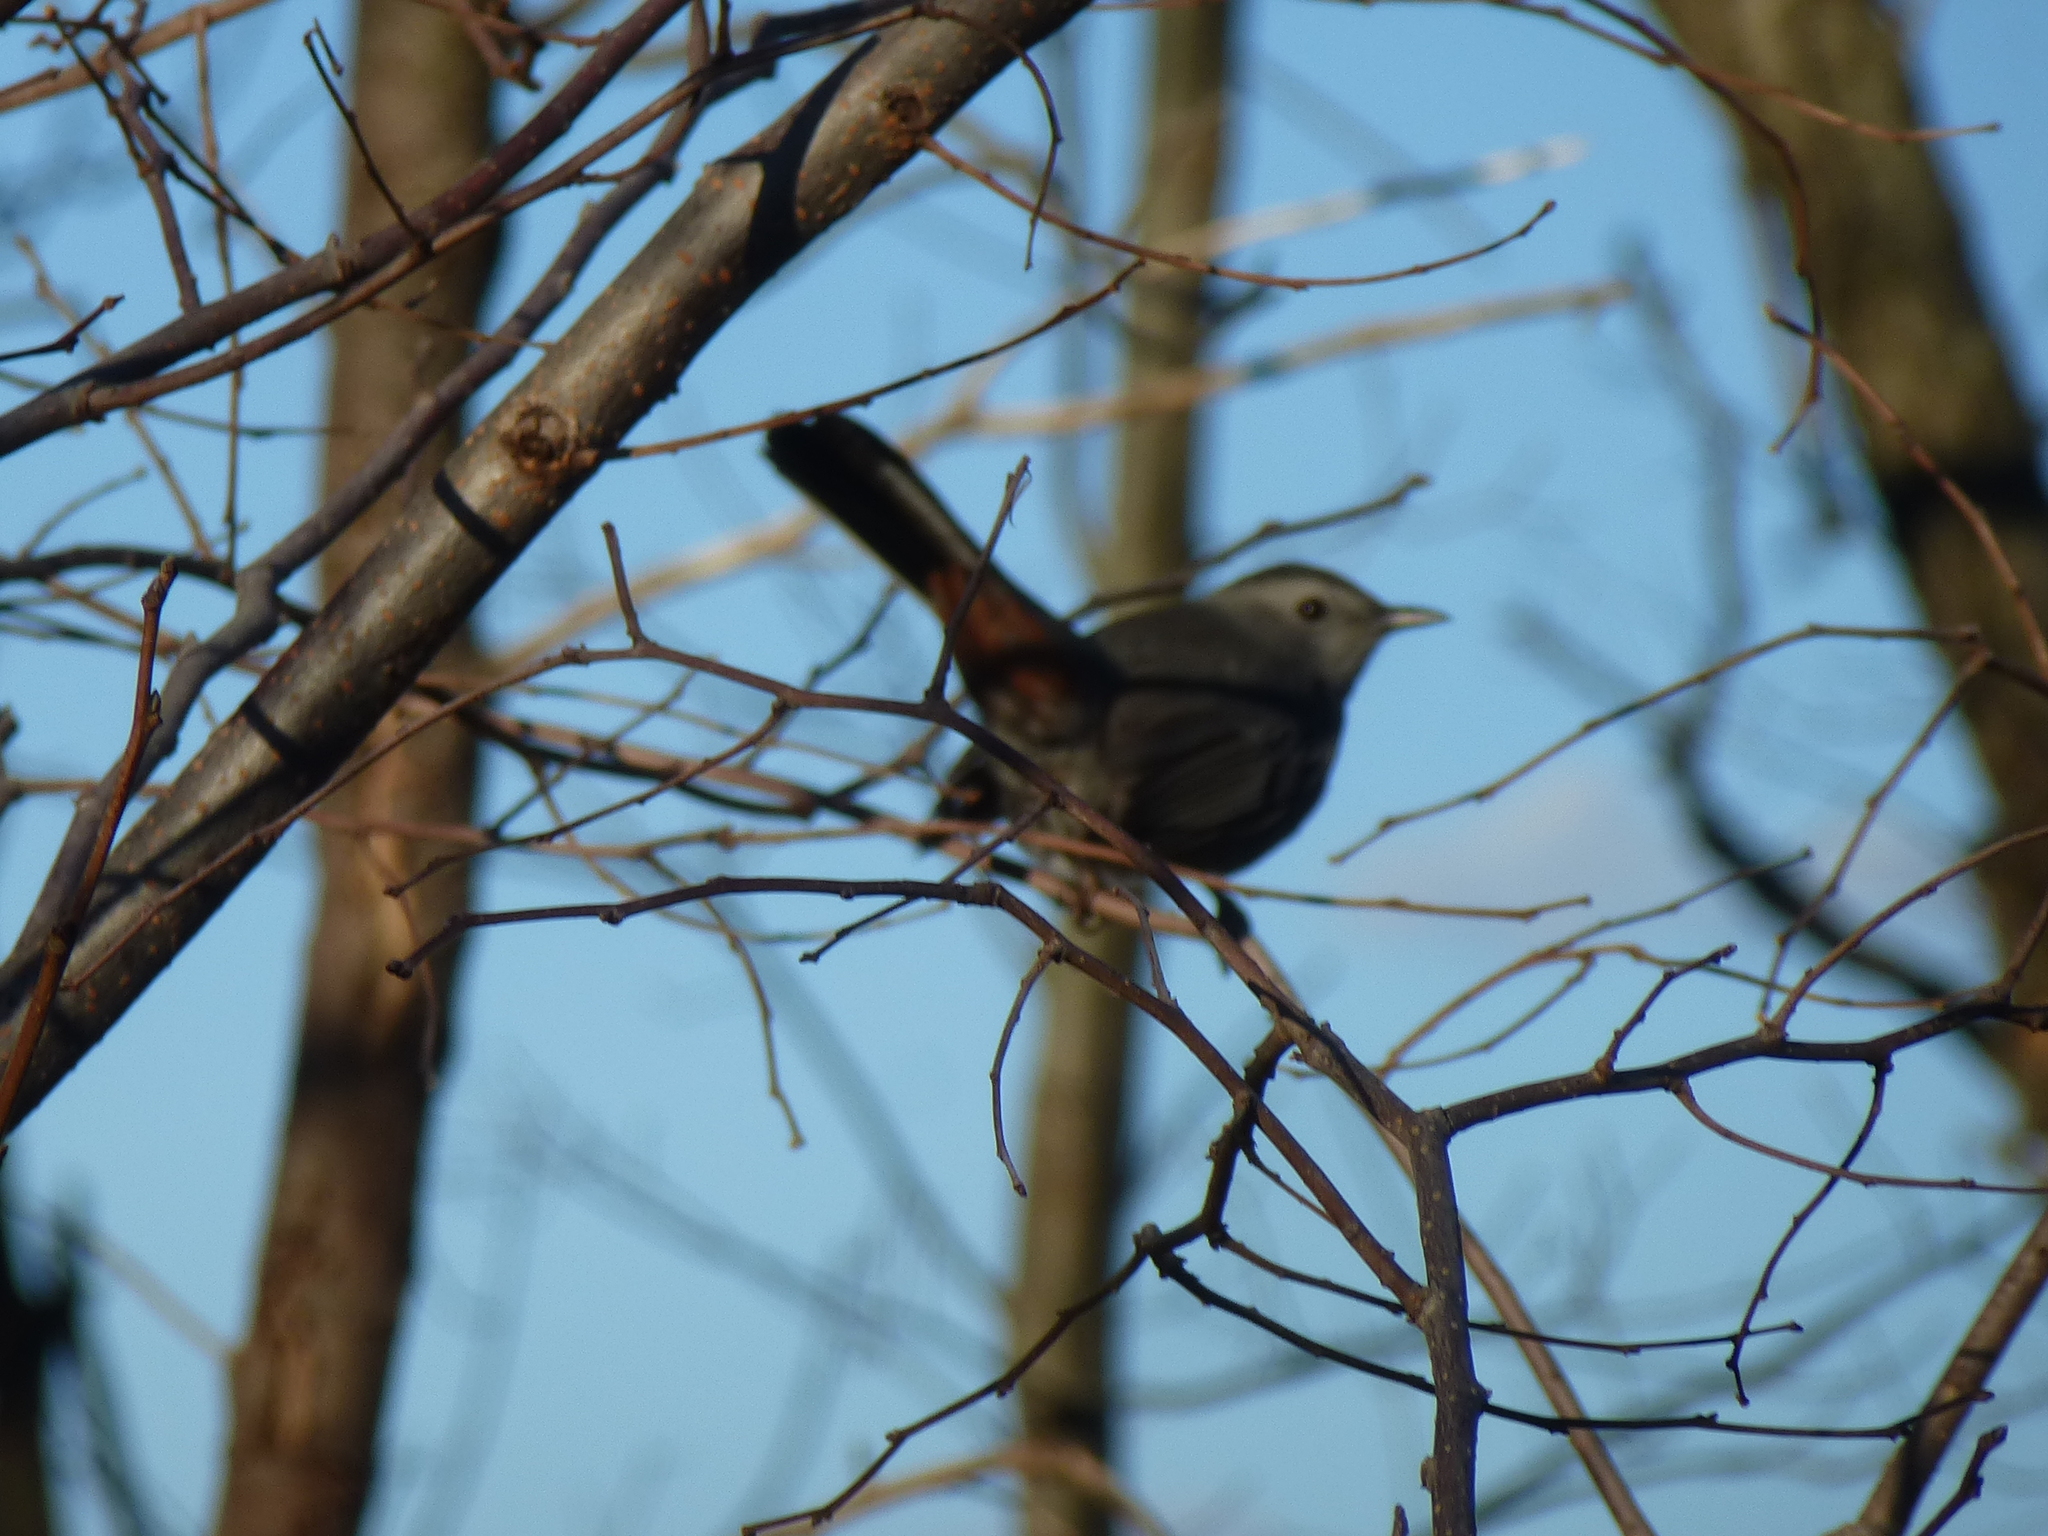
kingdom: Animalia
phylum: Chordata
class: Aves
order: Passeriformes
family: Mimidae
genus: Dumetella
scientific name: Dumetella carolinensis
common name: Gray catbird
